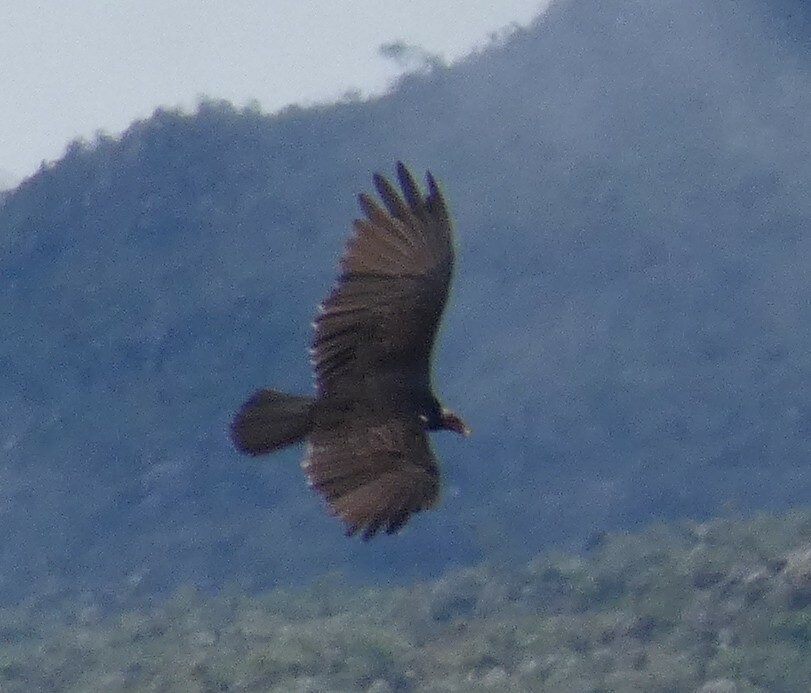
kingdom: Animalia
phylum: Chordata
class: Aves
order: Accipitriformes
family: Cathartidae
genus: Cathartes
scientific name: Cathartes aura
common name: Turkey vulture
